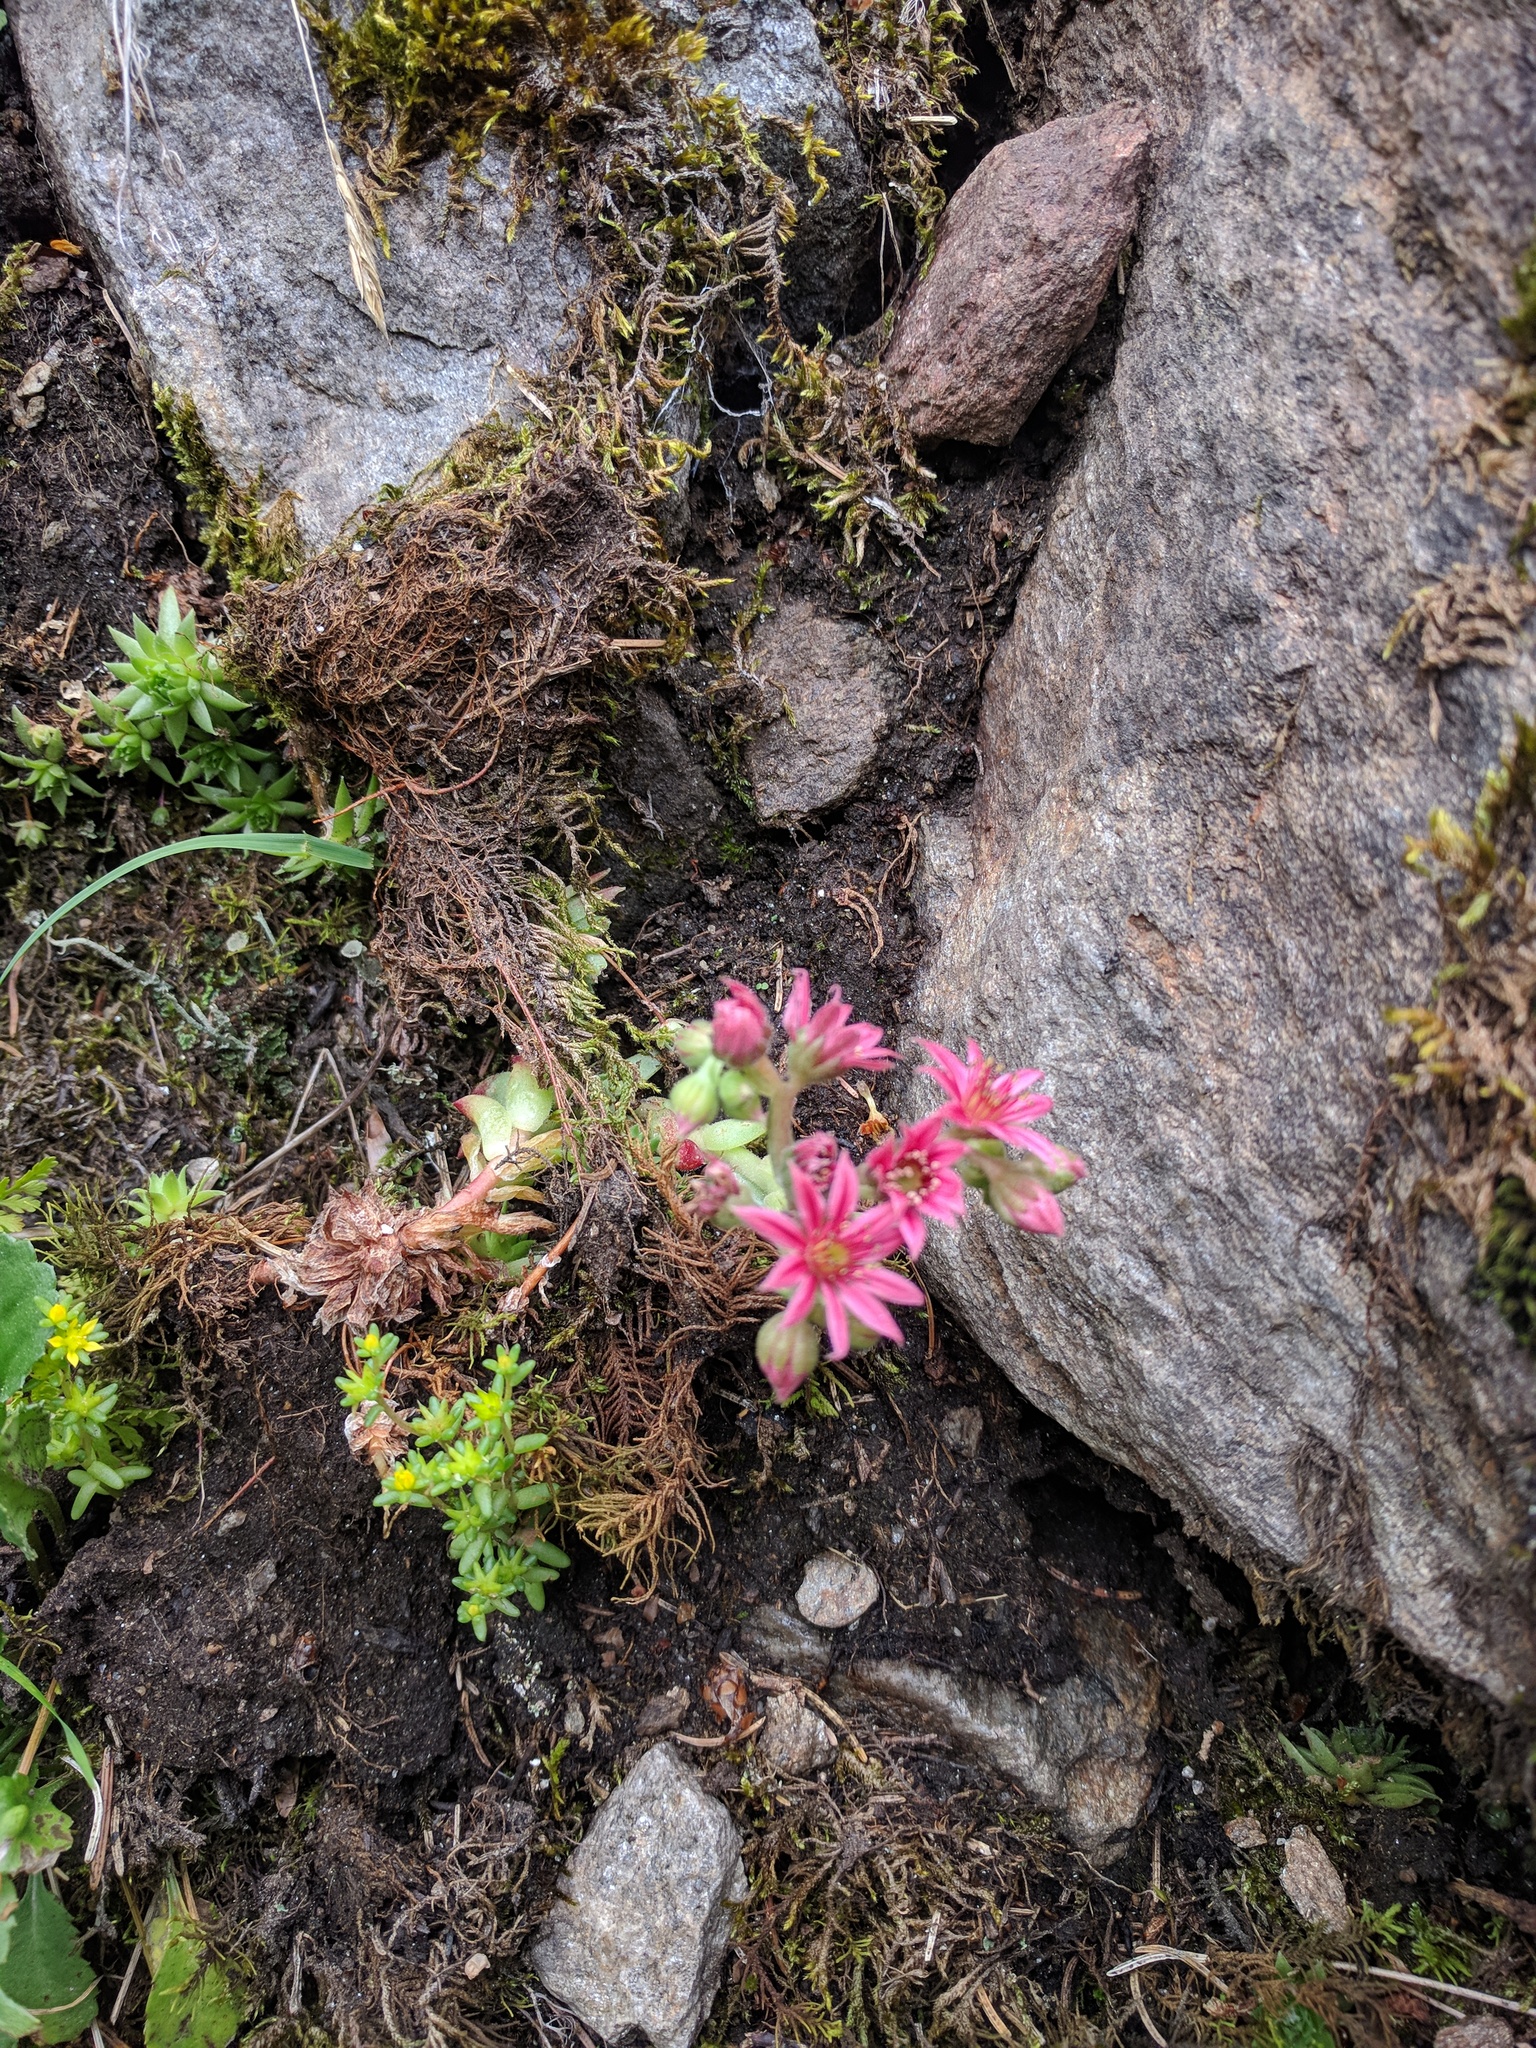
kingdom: Plantae
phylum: Tracheophyta
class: Magnoliopsida
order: Saxifragales
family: Crassulaceae
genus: Sempervivum
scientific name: Sempervivum arachnoideum
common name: Cobweb house-leek
